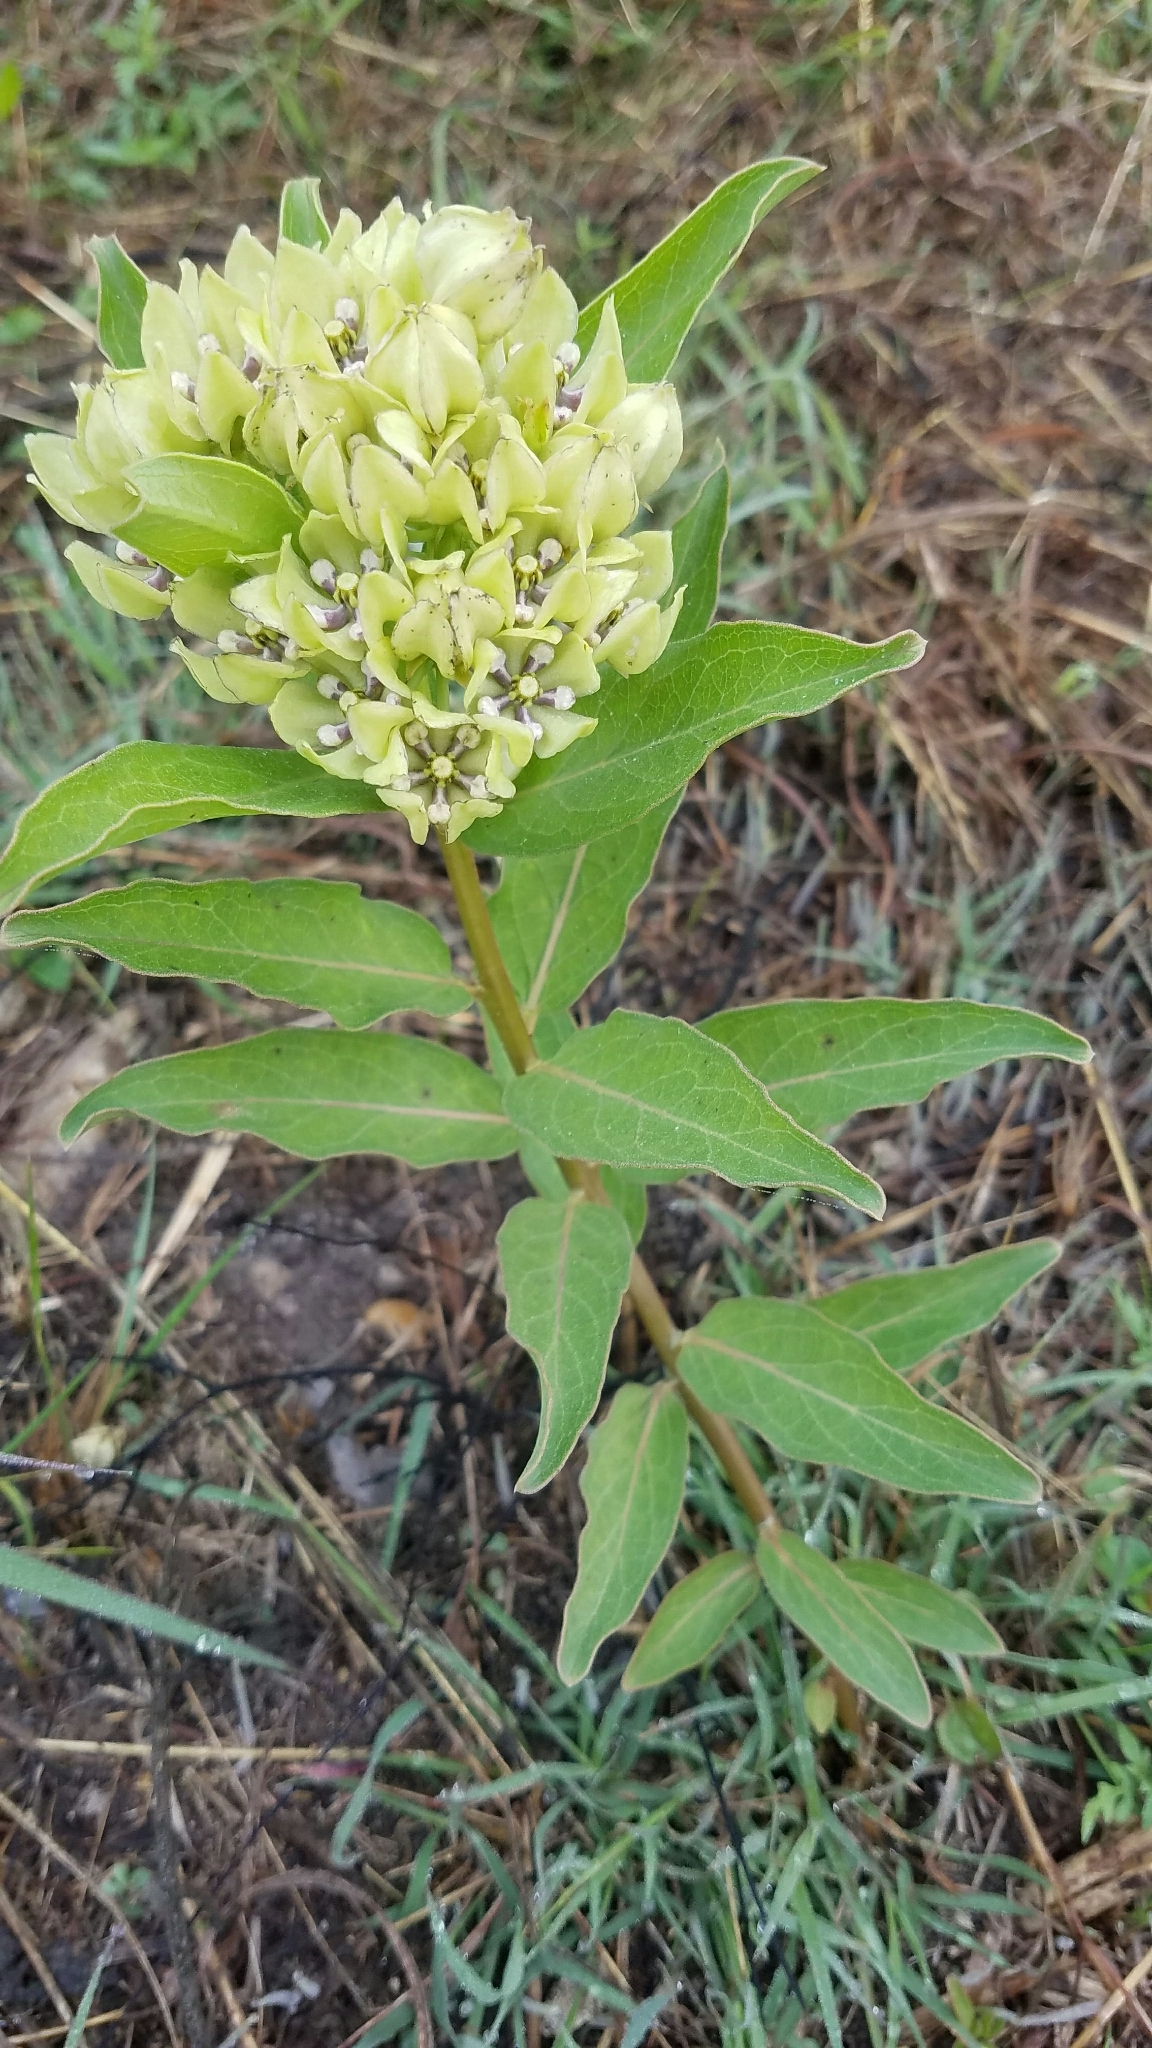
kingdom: Plantae
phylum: Tracheophyta
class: Magnoliopsida
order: Gentianales
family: Apocynaceae
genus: Asclepias
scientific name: Asclepias viridis
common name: Antelope-horns
